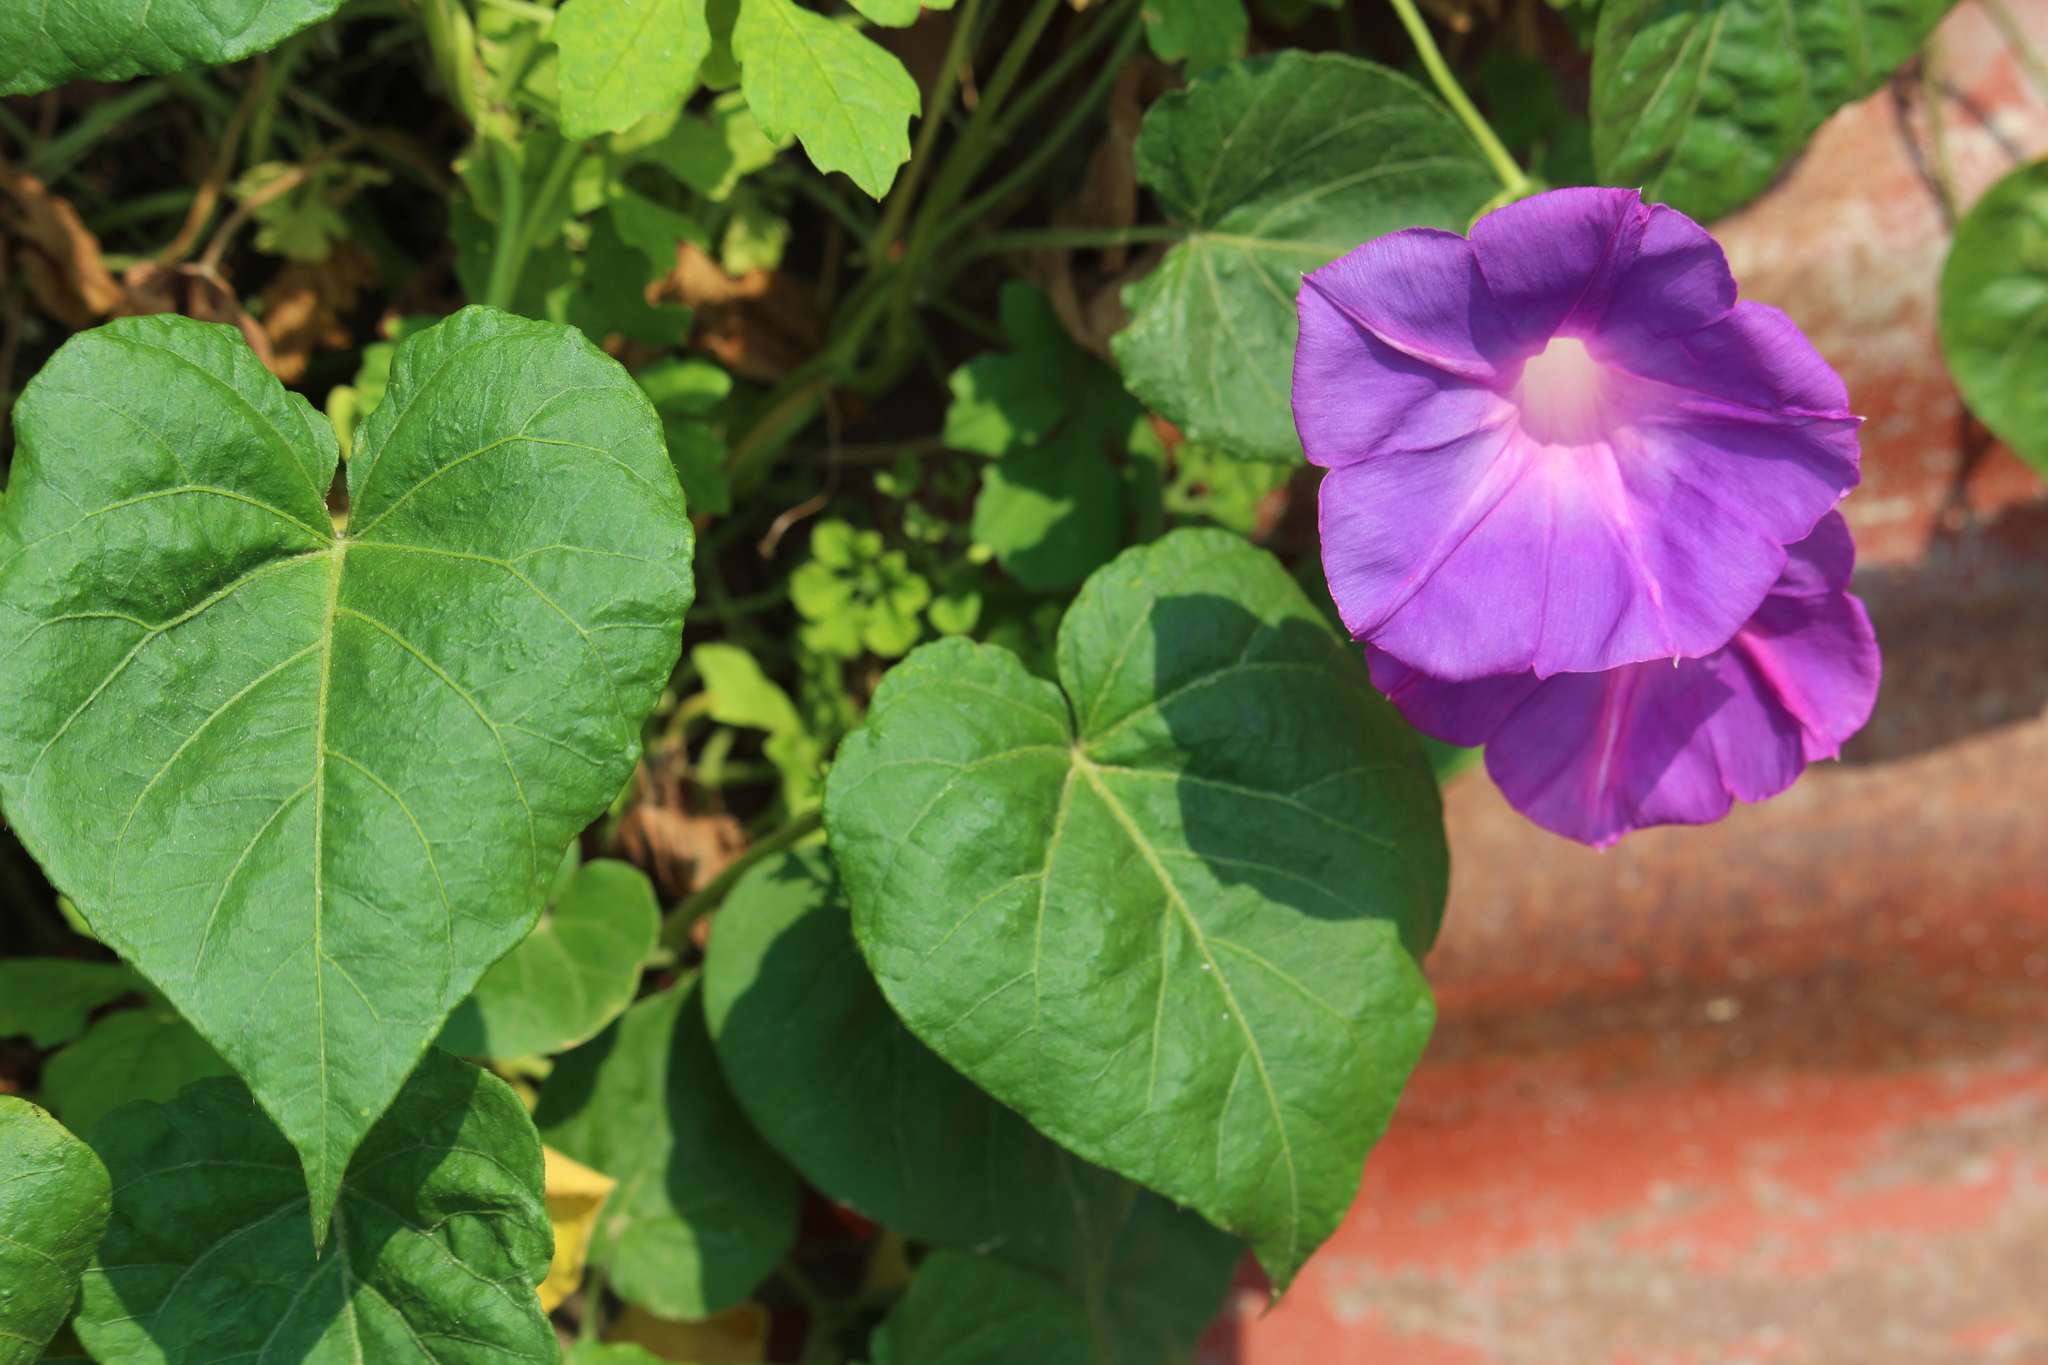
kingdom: Plantae
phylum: Tracheophyta
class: Magnoliopsida
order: Solanales
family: Convolvulaceae
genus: Ipomoea
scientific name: Ipomoea indica
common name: Blue dawnflower
